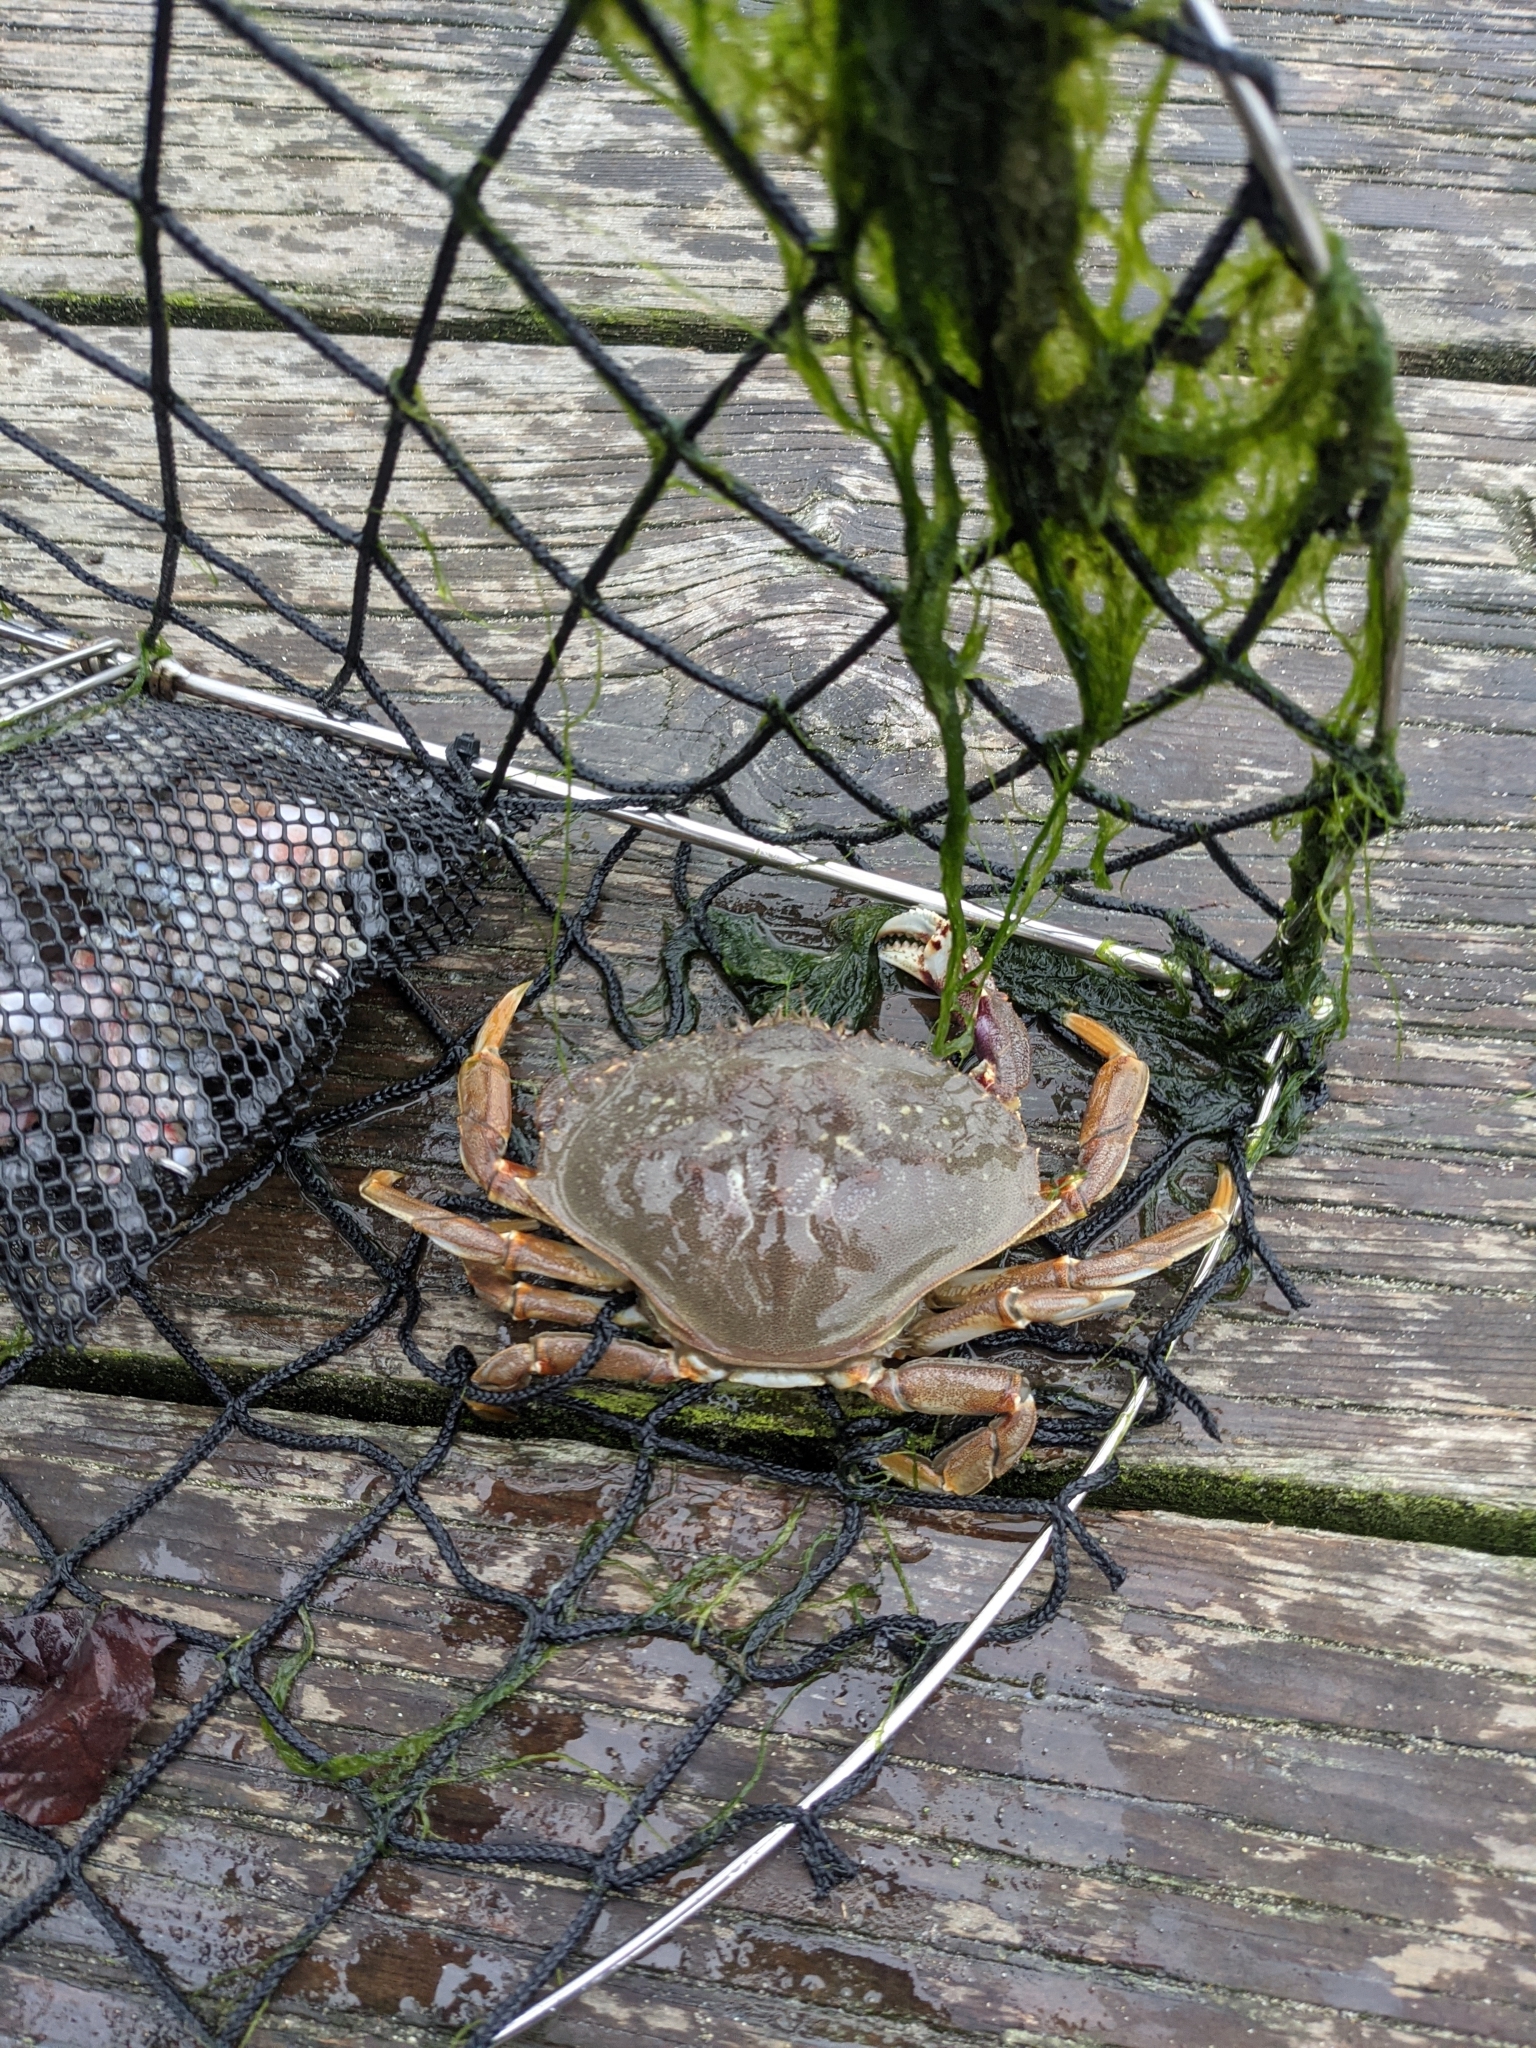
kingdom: Animalia
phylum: Arthropoda
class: Malacostraca
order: Decapoda
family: Cancridae
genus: Metacarcinus
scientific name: Metacarcinus magister
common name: Californian crab
